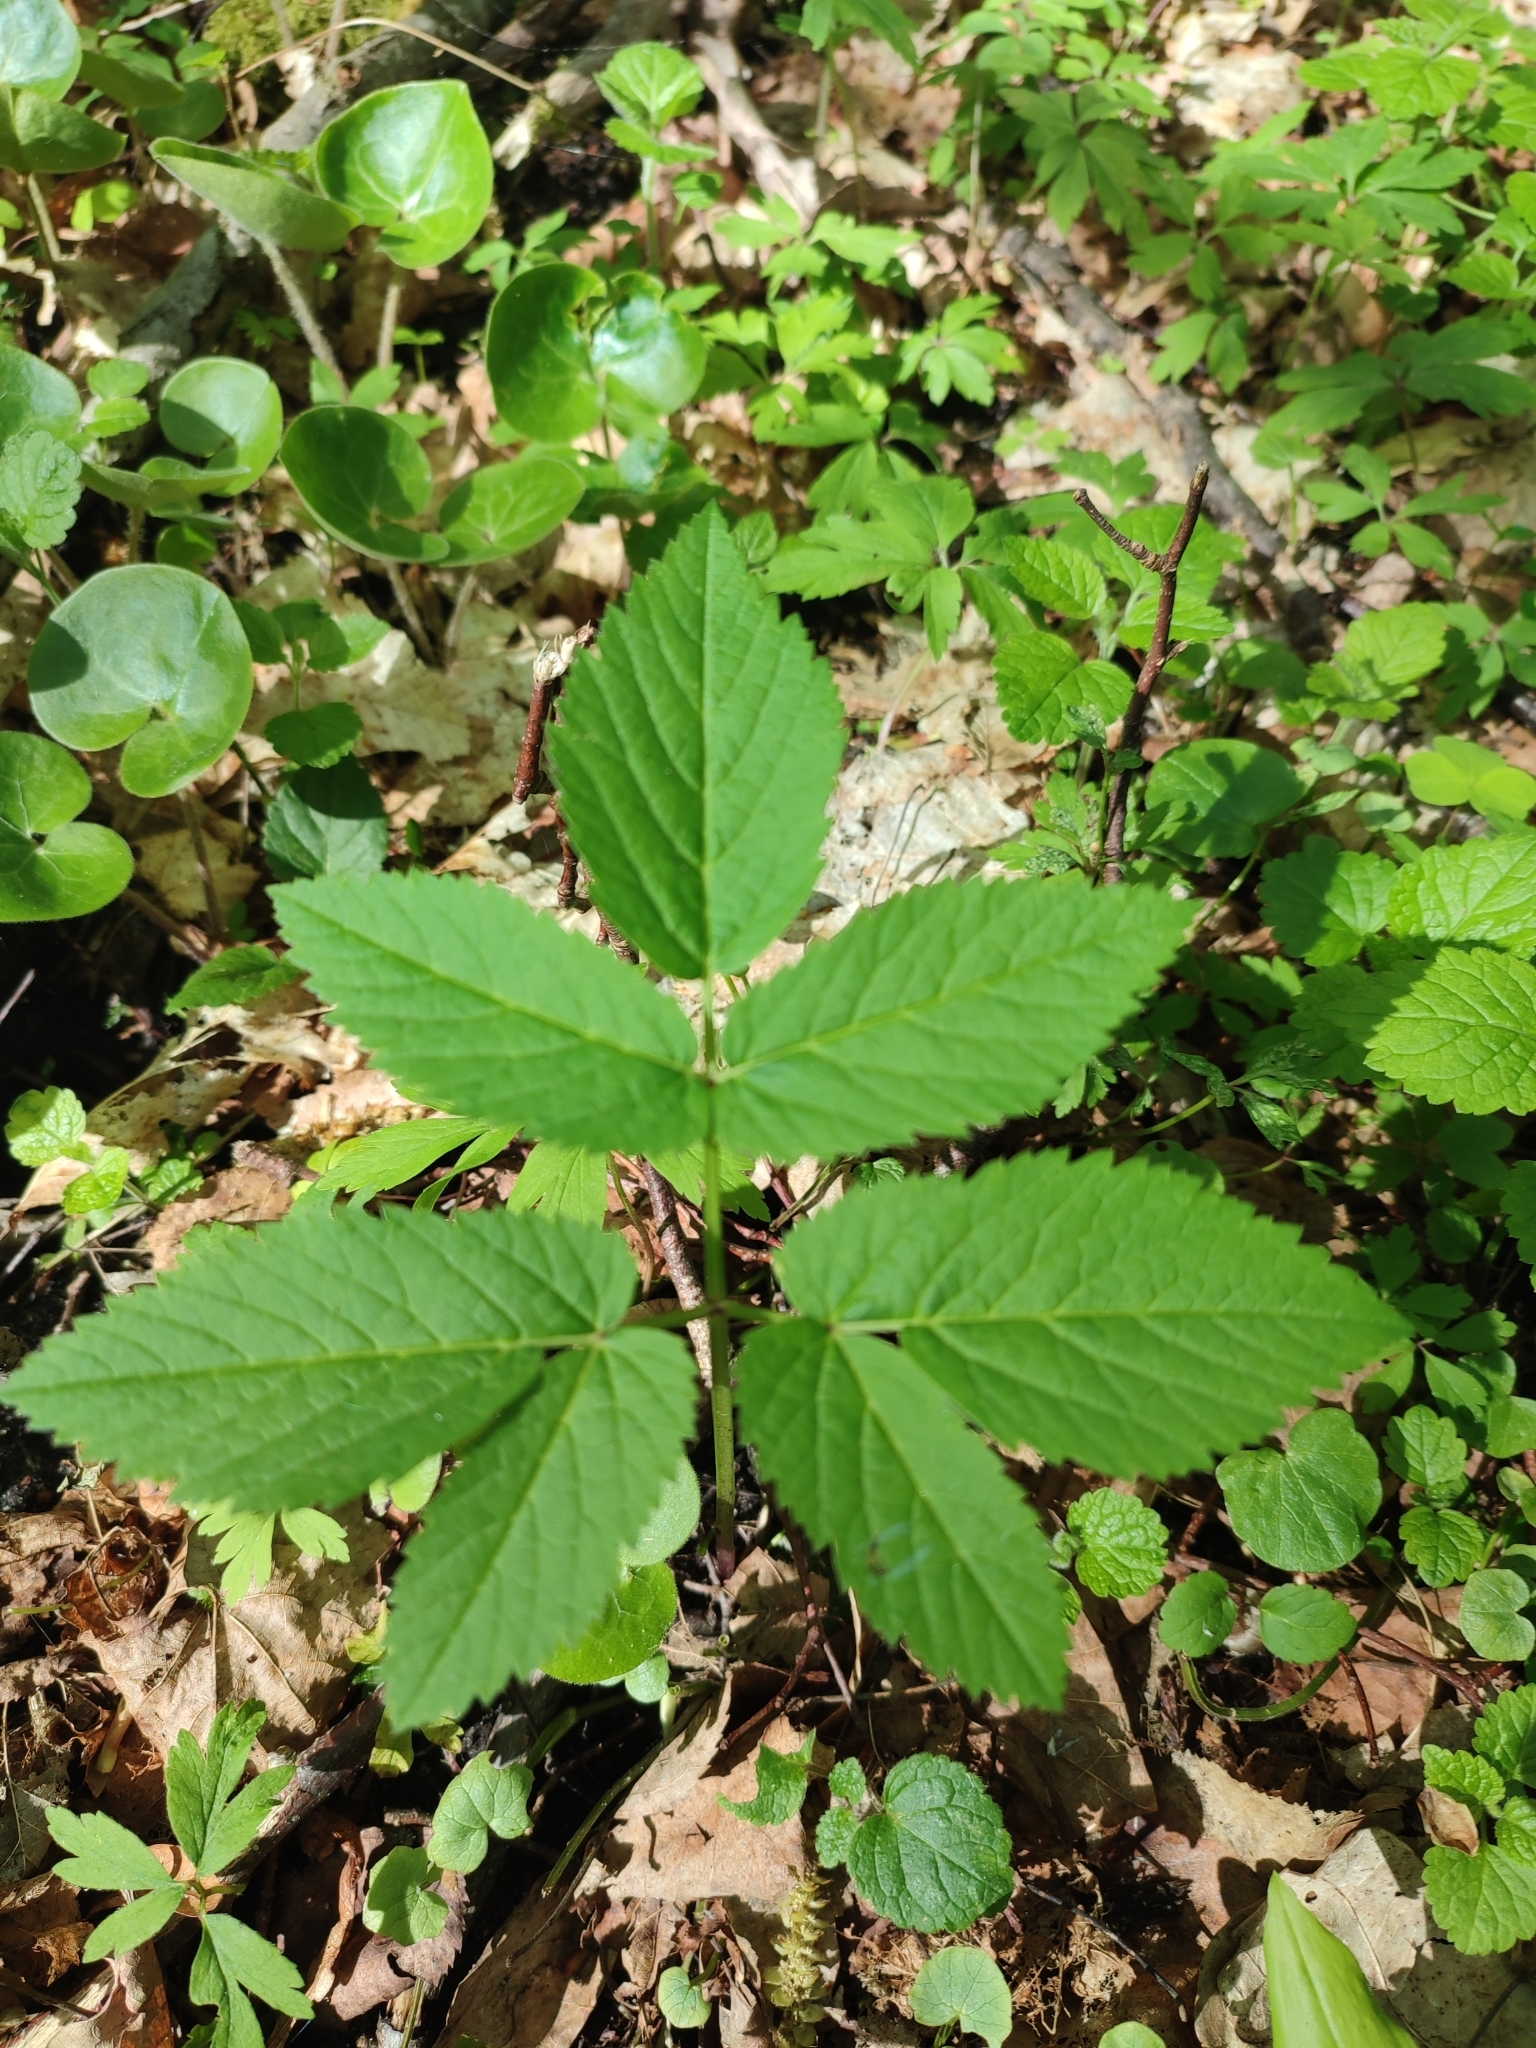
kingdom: Plantae
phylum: Tracheophyta
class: Magnoliopsida
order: Apiales
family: Apiaceae
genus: Aegopodium
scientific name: Aegopodium podagraria
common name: Ground-elder
